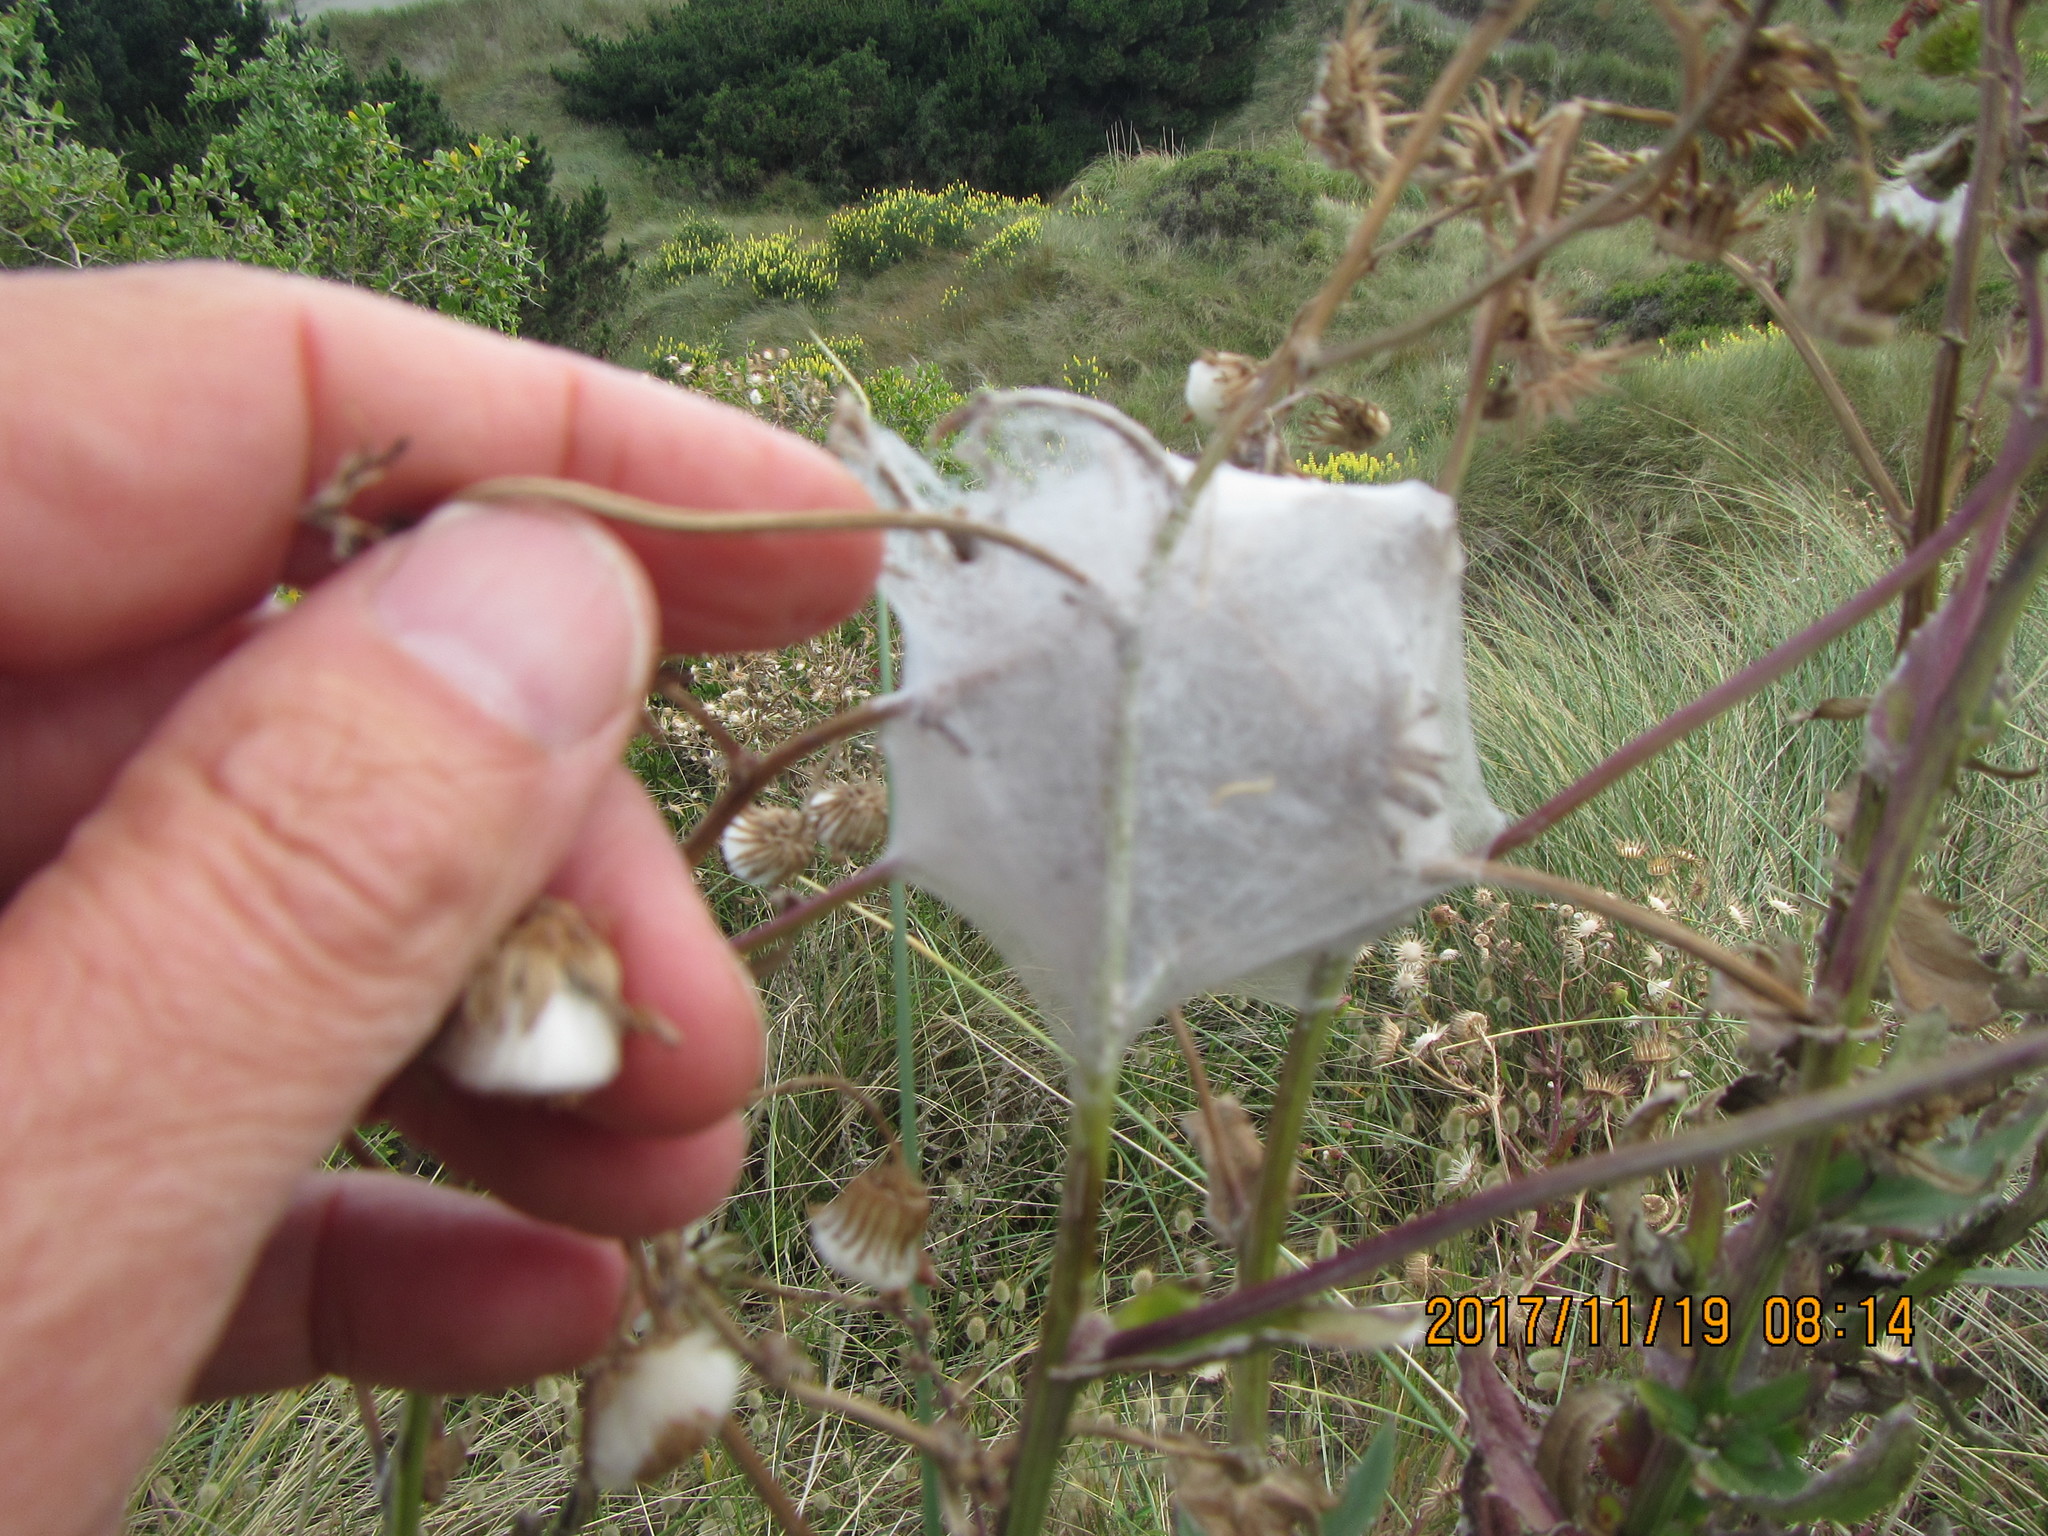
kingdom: Animalia
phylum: Arthropoda
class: Arachnida
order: Araneae
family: Pisauridae
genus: Dolomedes
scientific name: Dolomedes minor
